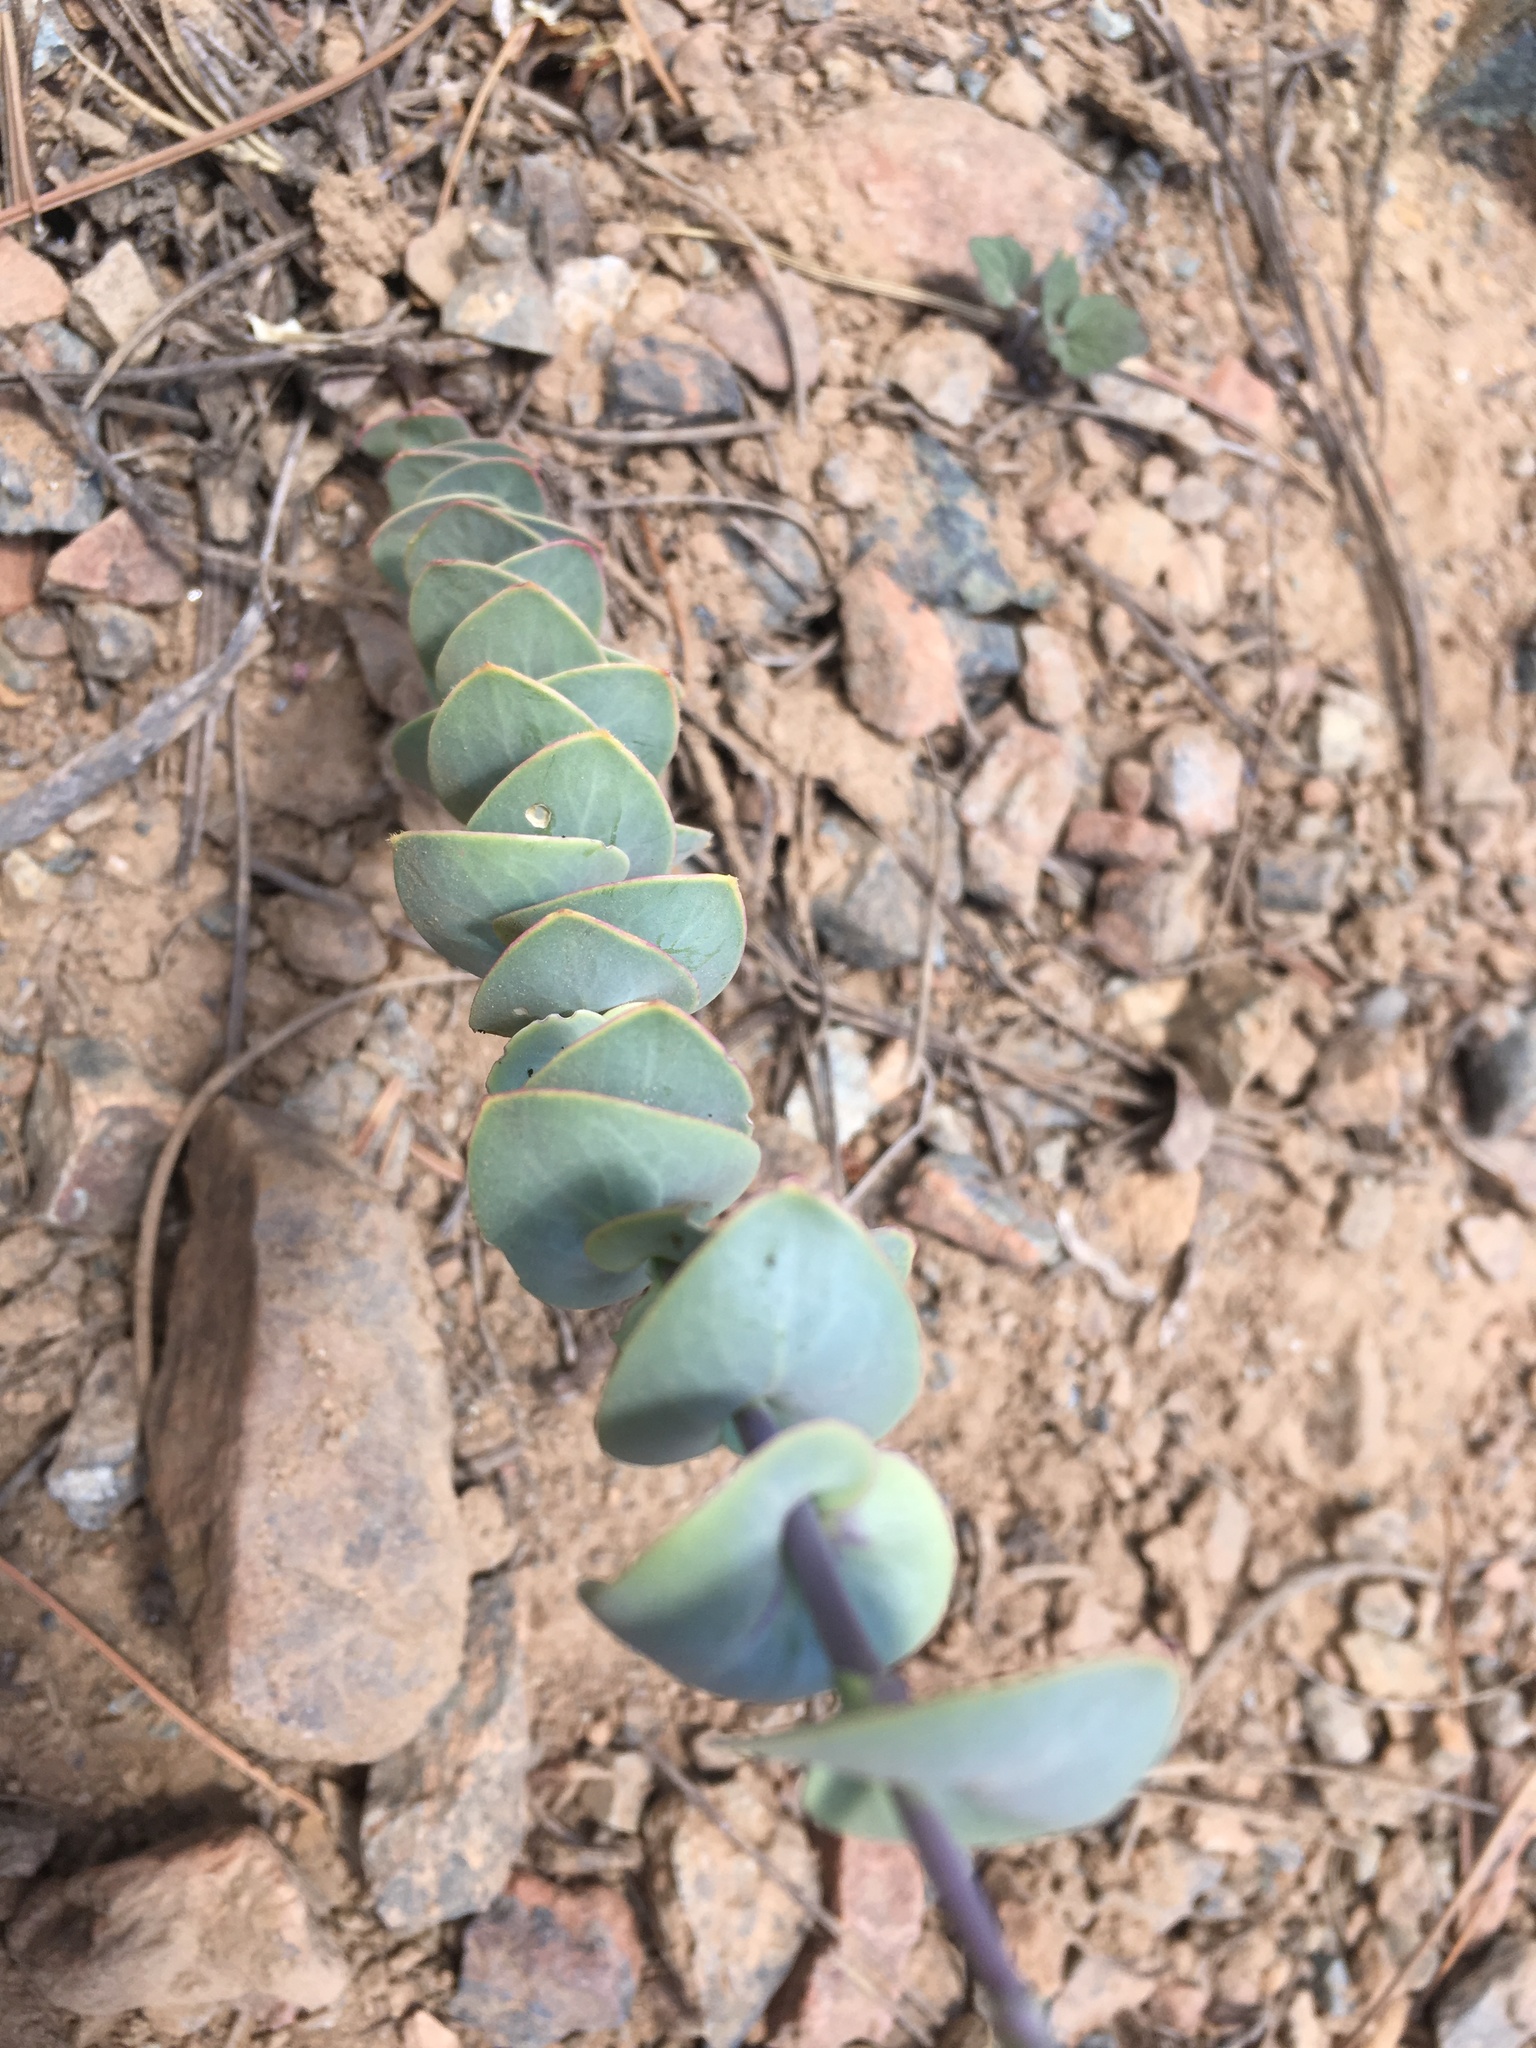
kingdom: Plantae
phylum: Tracheophyta
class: Magnoliopsida
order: Brassicales
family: Brassicaceae
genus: Streptanthus
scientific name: Streptanthus barbatus
